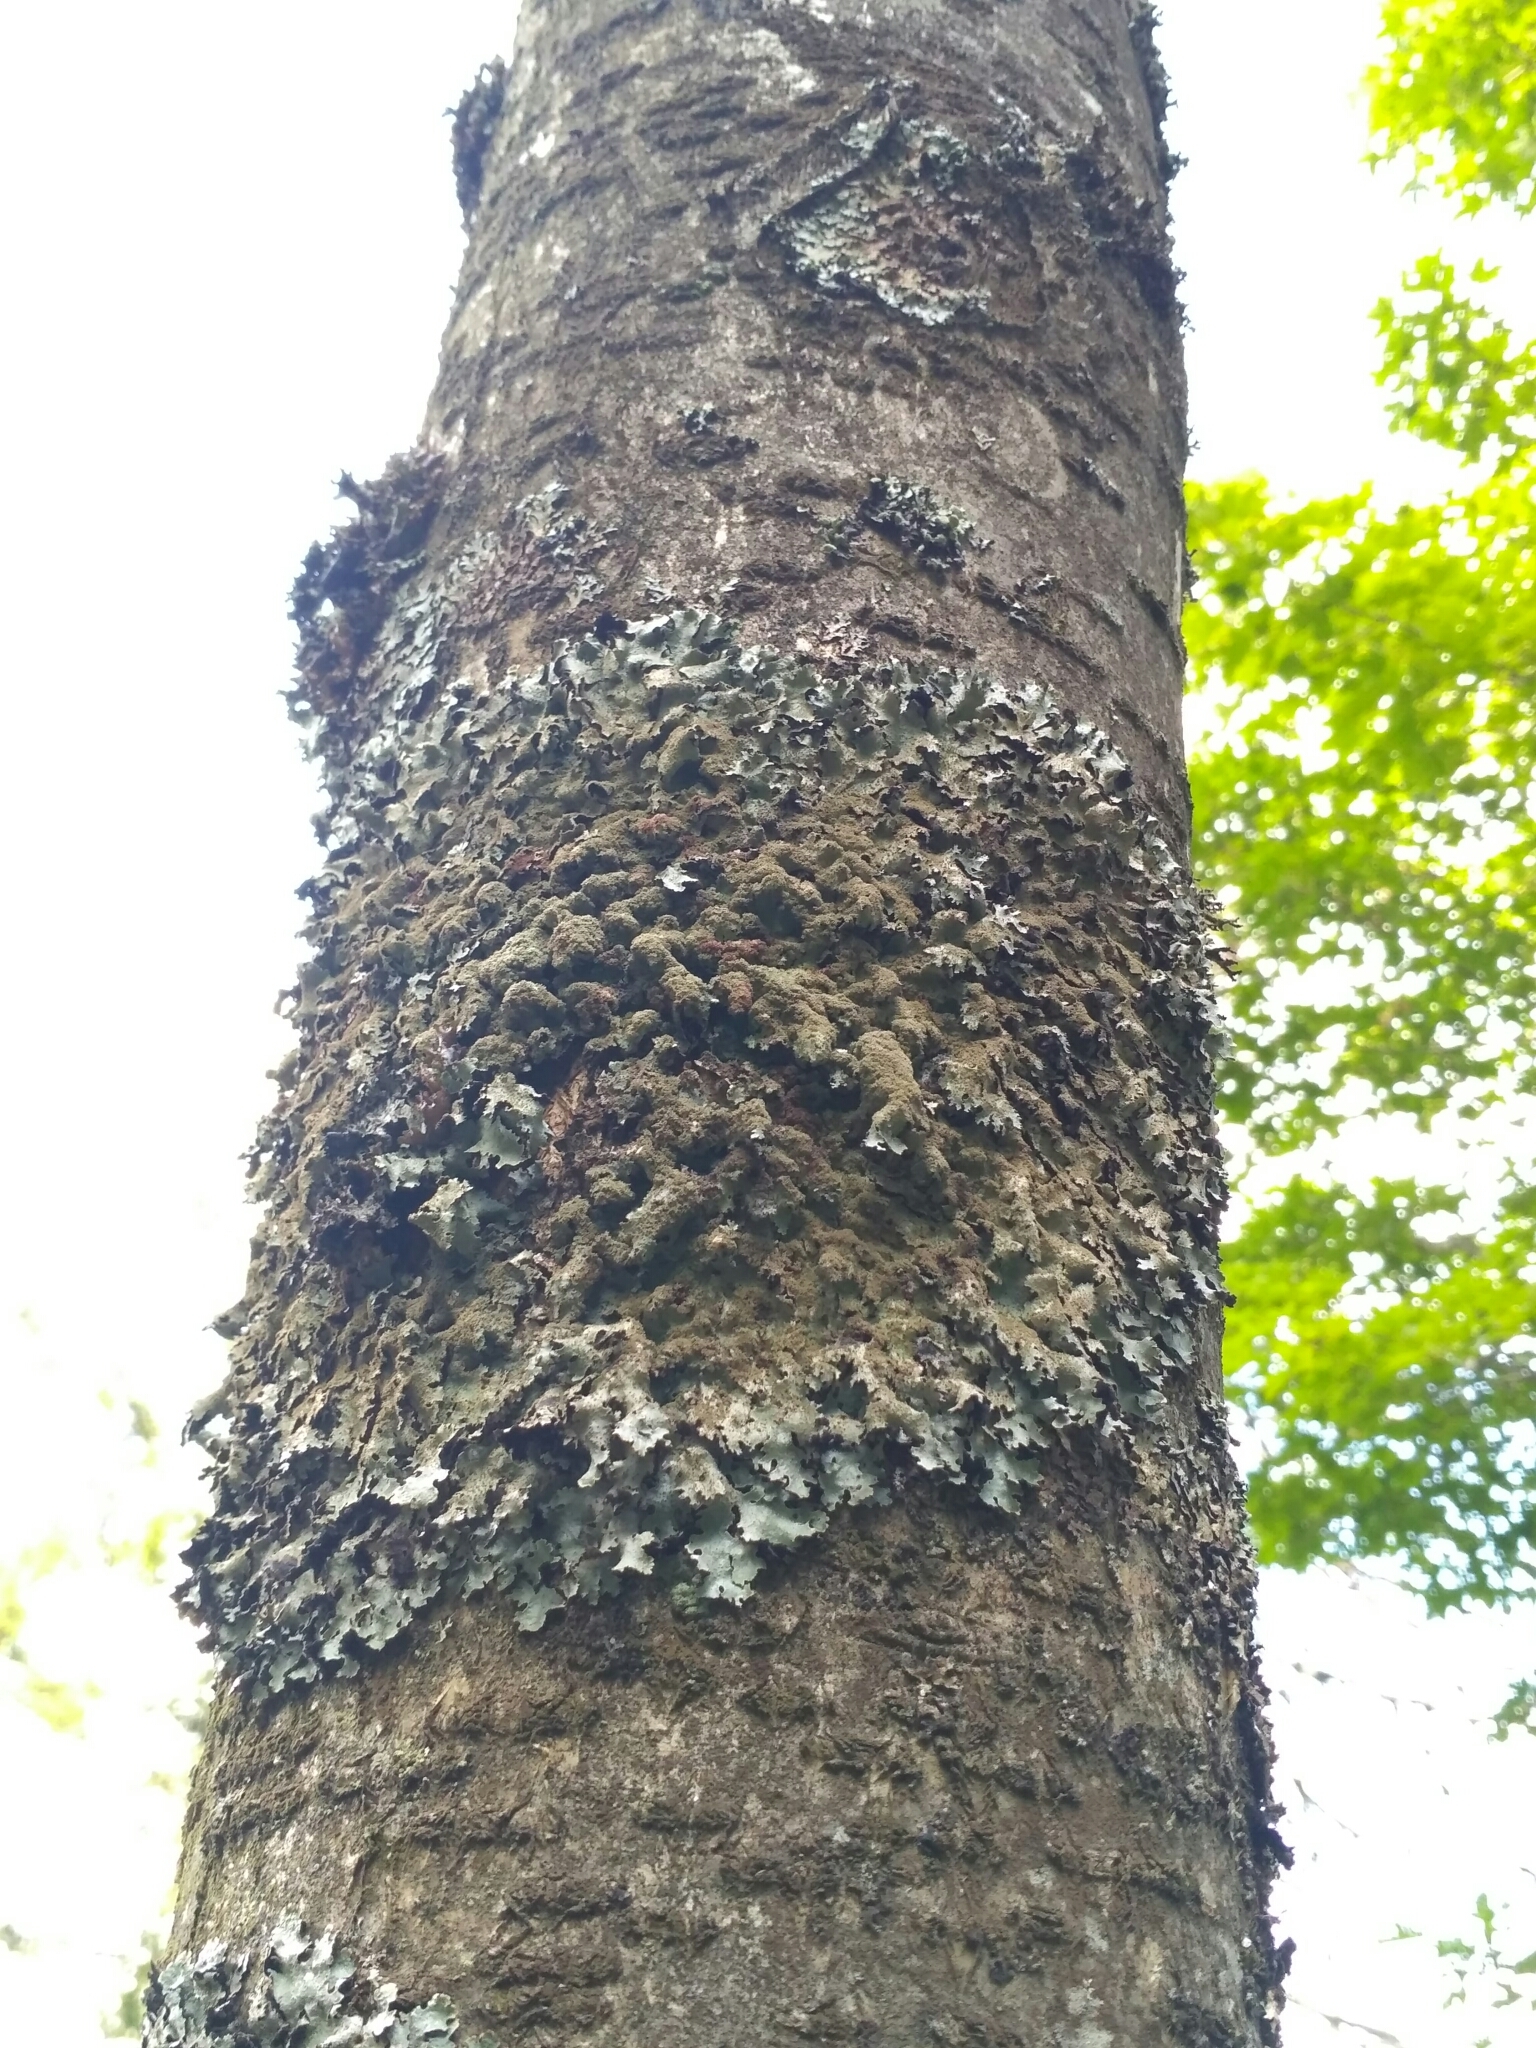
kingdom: Fungi
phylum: Ascomycota
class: Lecanoromycetes
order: Lecanorales
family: Parmeliaceae
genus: Parmelia
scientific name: Parmelia saxatilis
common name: Salted shield lichen
